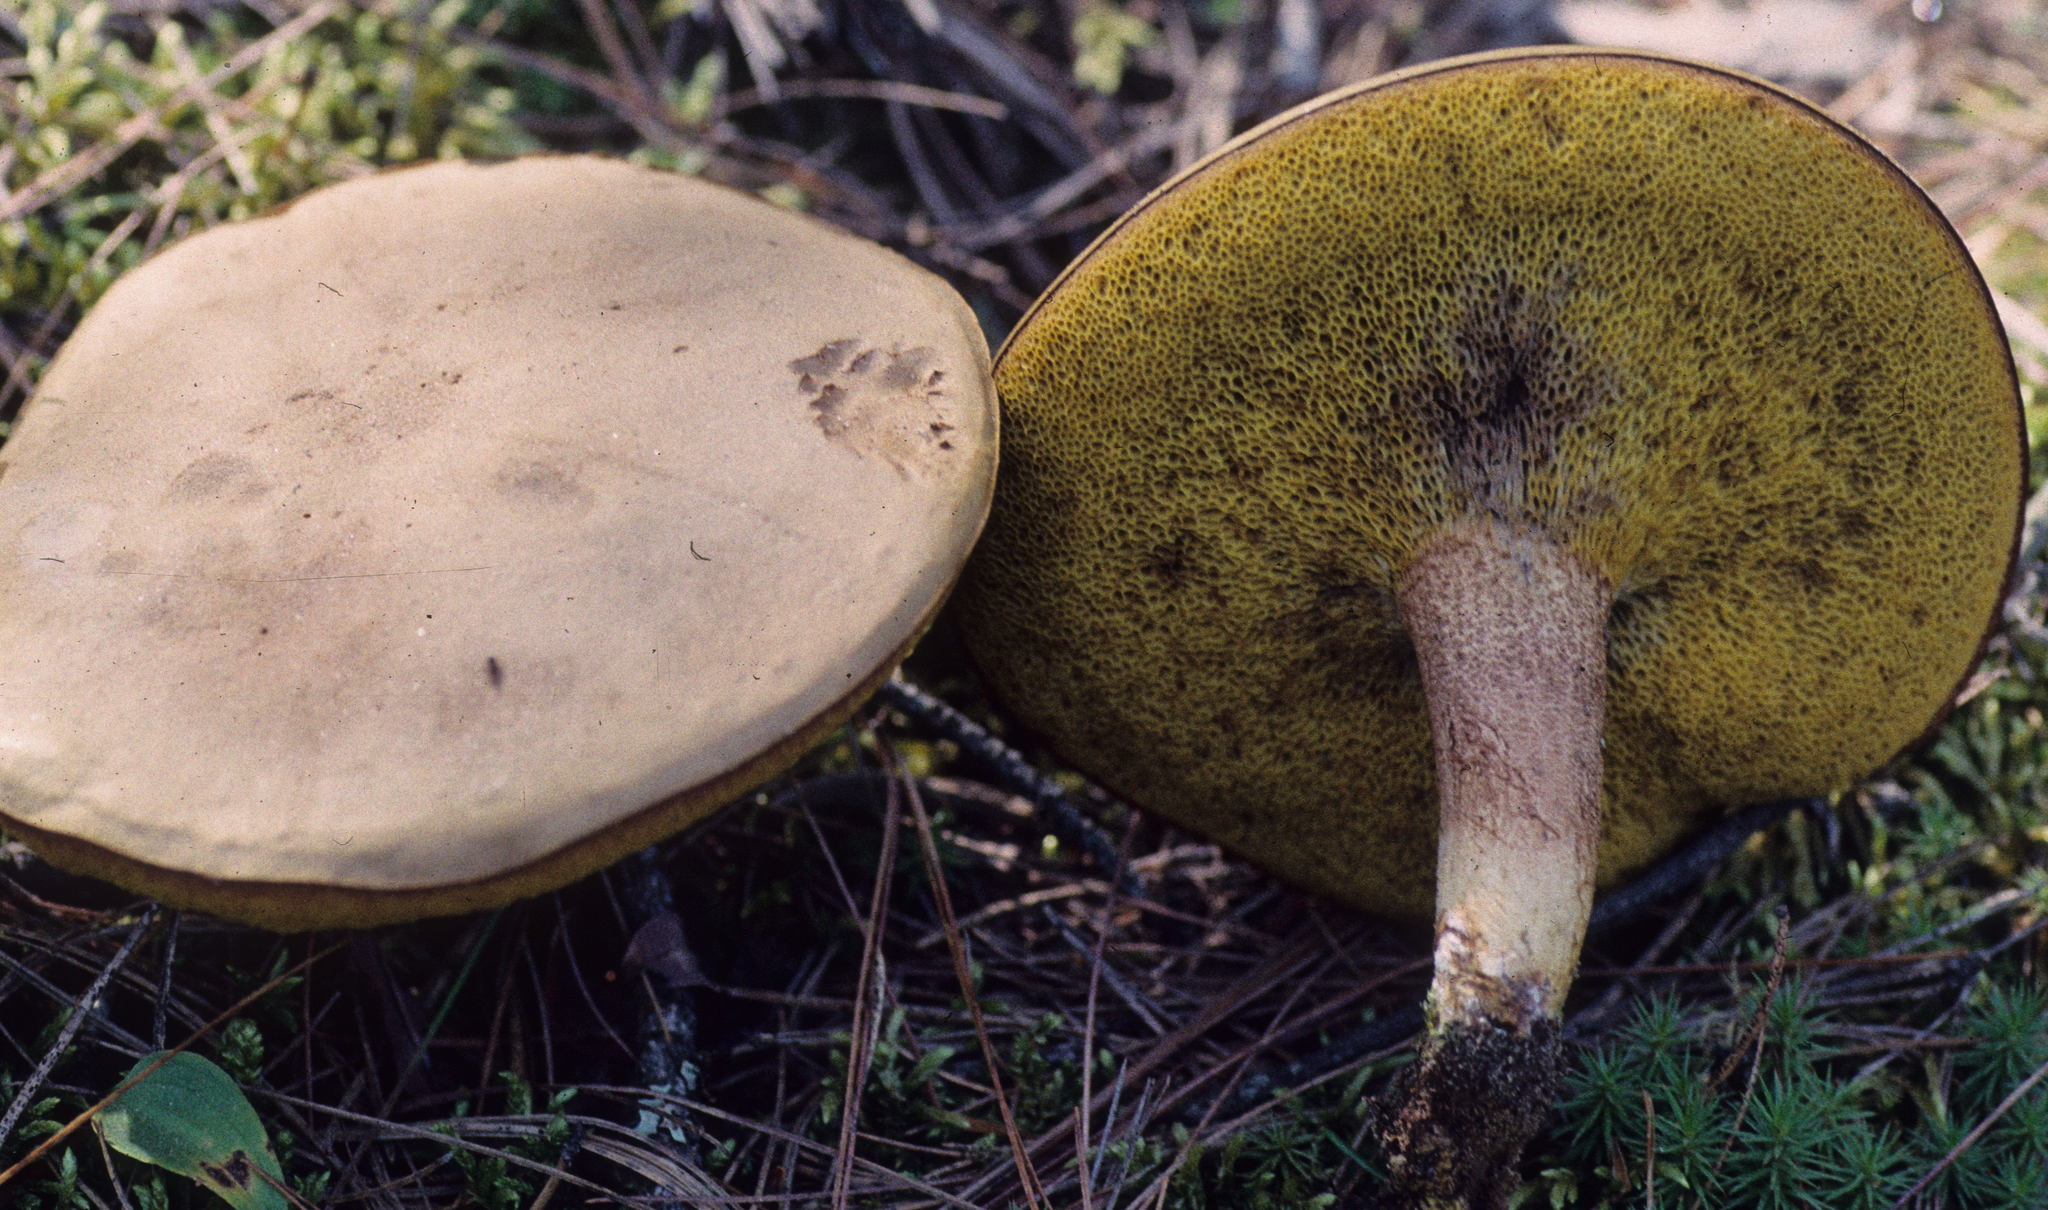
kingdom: Fungi
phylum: Basidiomycota
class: Agaricomycetes
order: Boletales
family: Boletaceae
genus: Xerocomus
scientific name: Xerocomus subtomentosus
